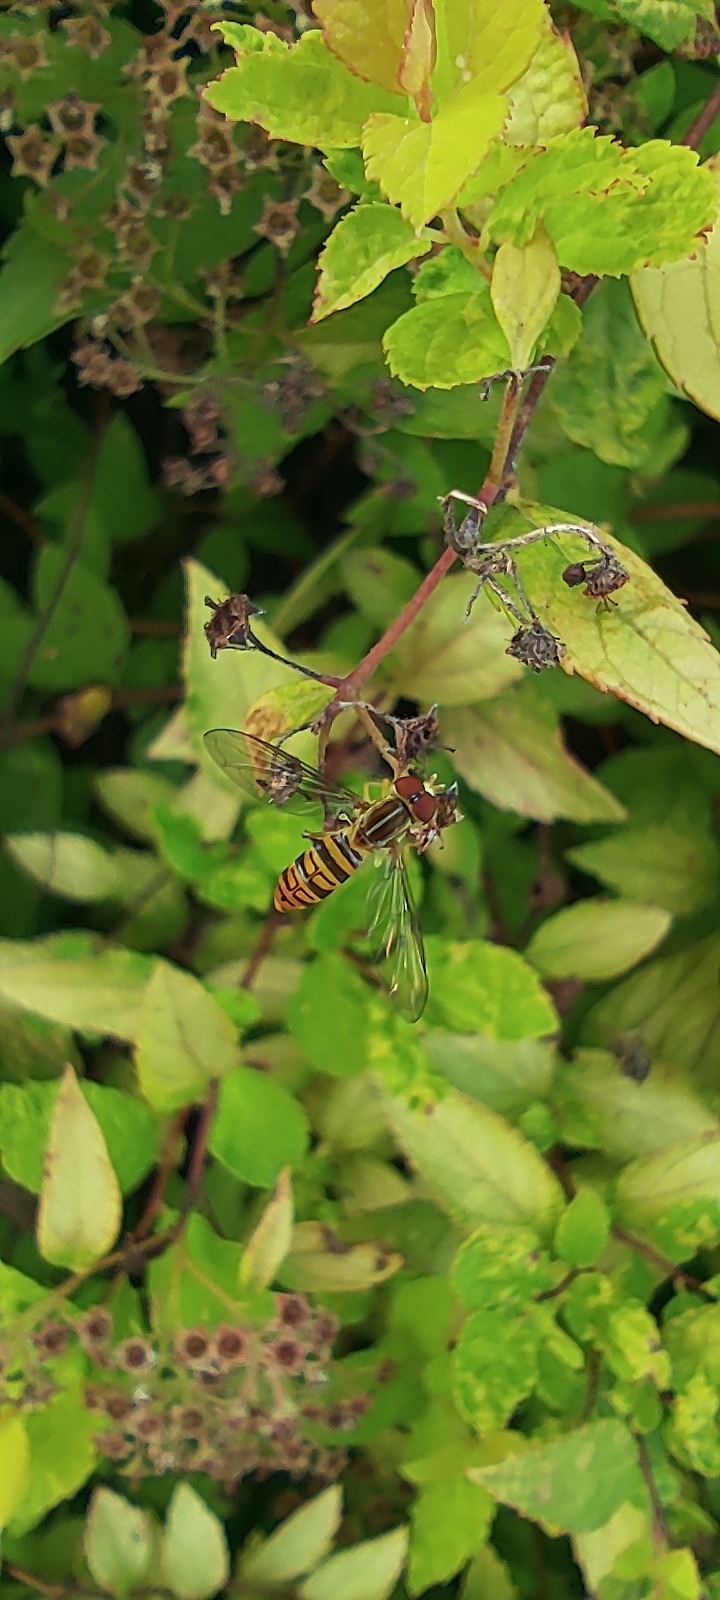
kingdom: Animalia
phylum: Arthropoda
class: Insecta
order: Diptera
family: Syrphidae
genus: Toxomerus
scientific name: Toxomerus politus
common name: Maize calligrapher
